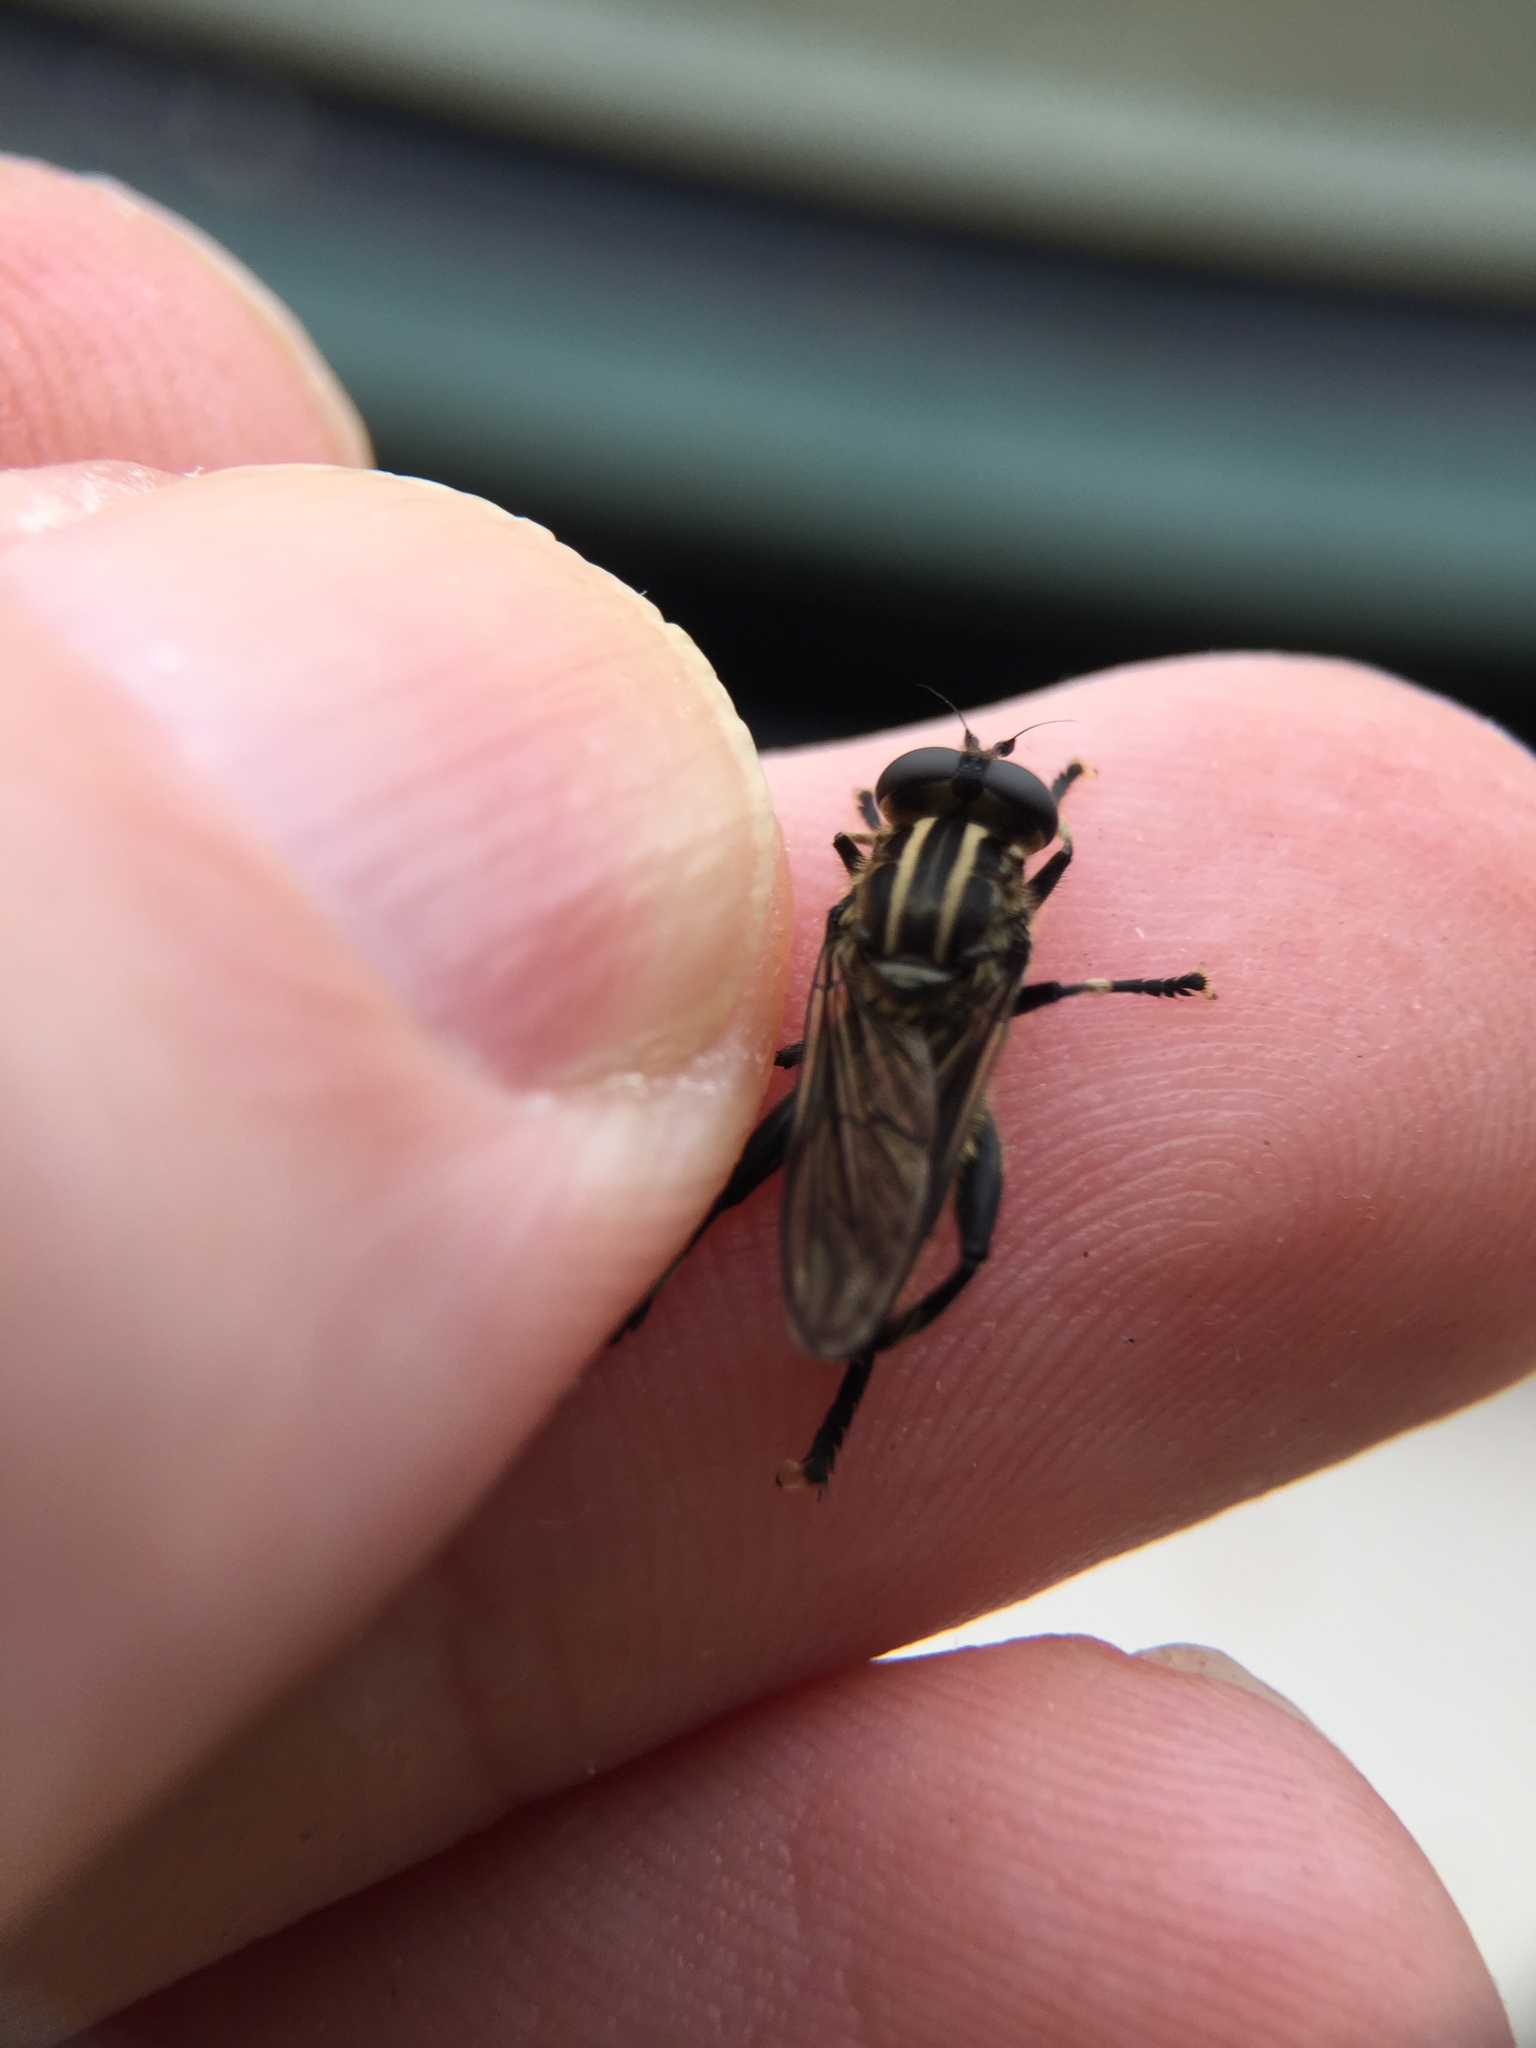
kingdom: Animalia
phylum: Arthropoda
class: Insecta
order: Diptera
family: Syrphidae
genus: Orthoprosopa
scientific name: Orthoprosopa bilineata
